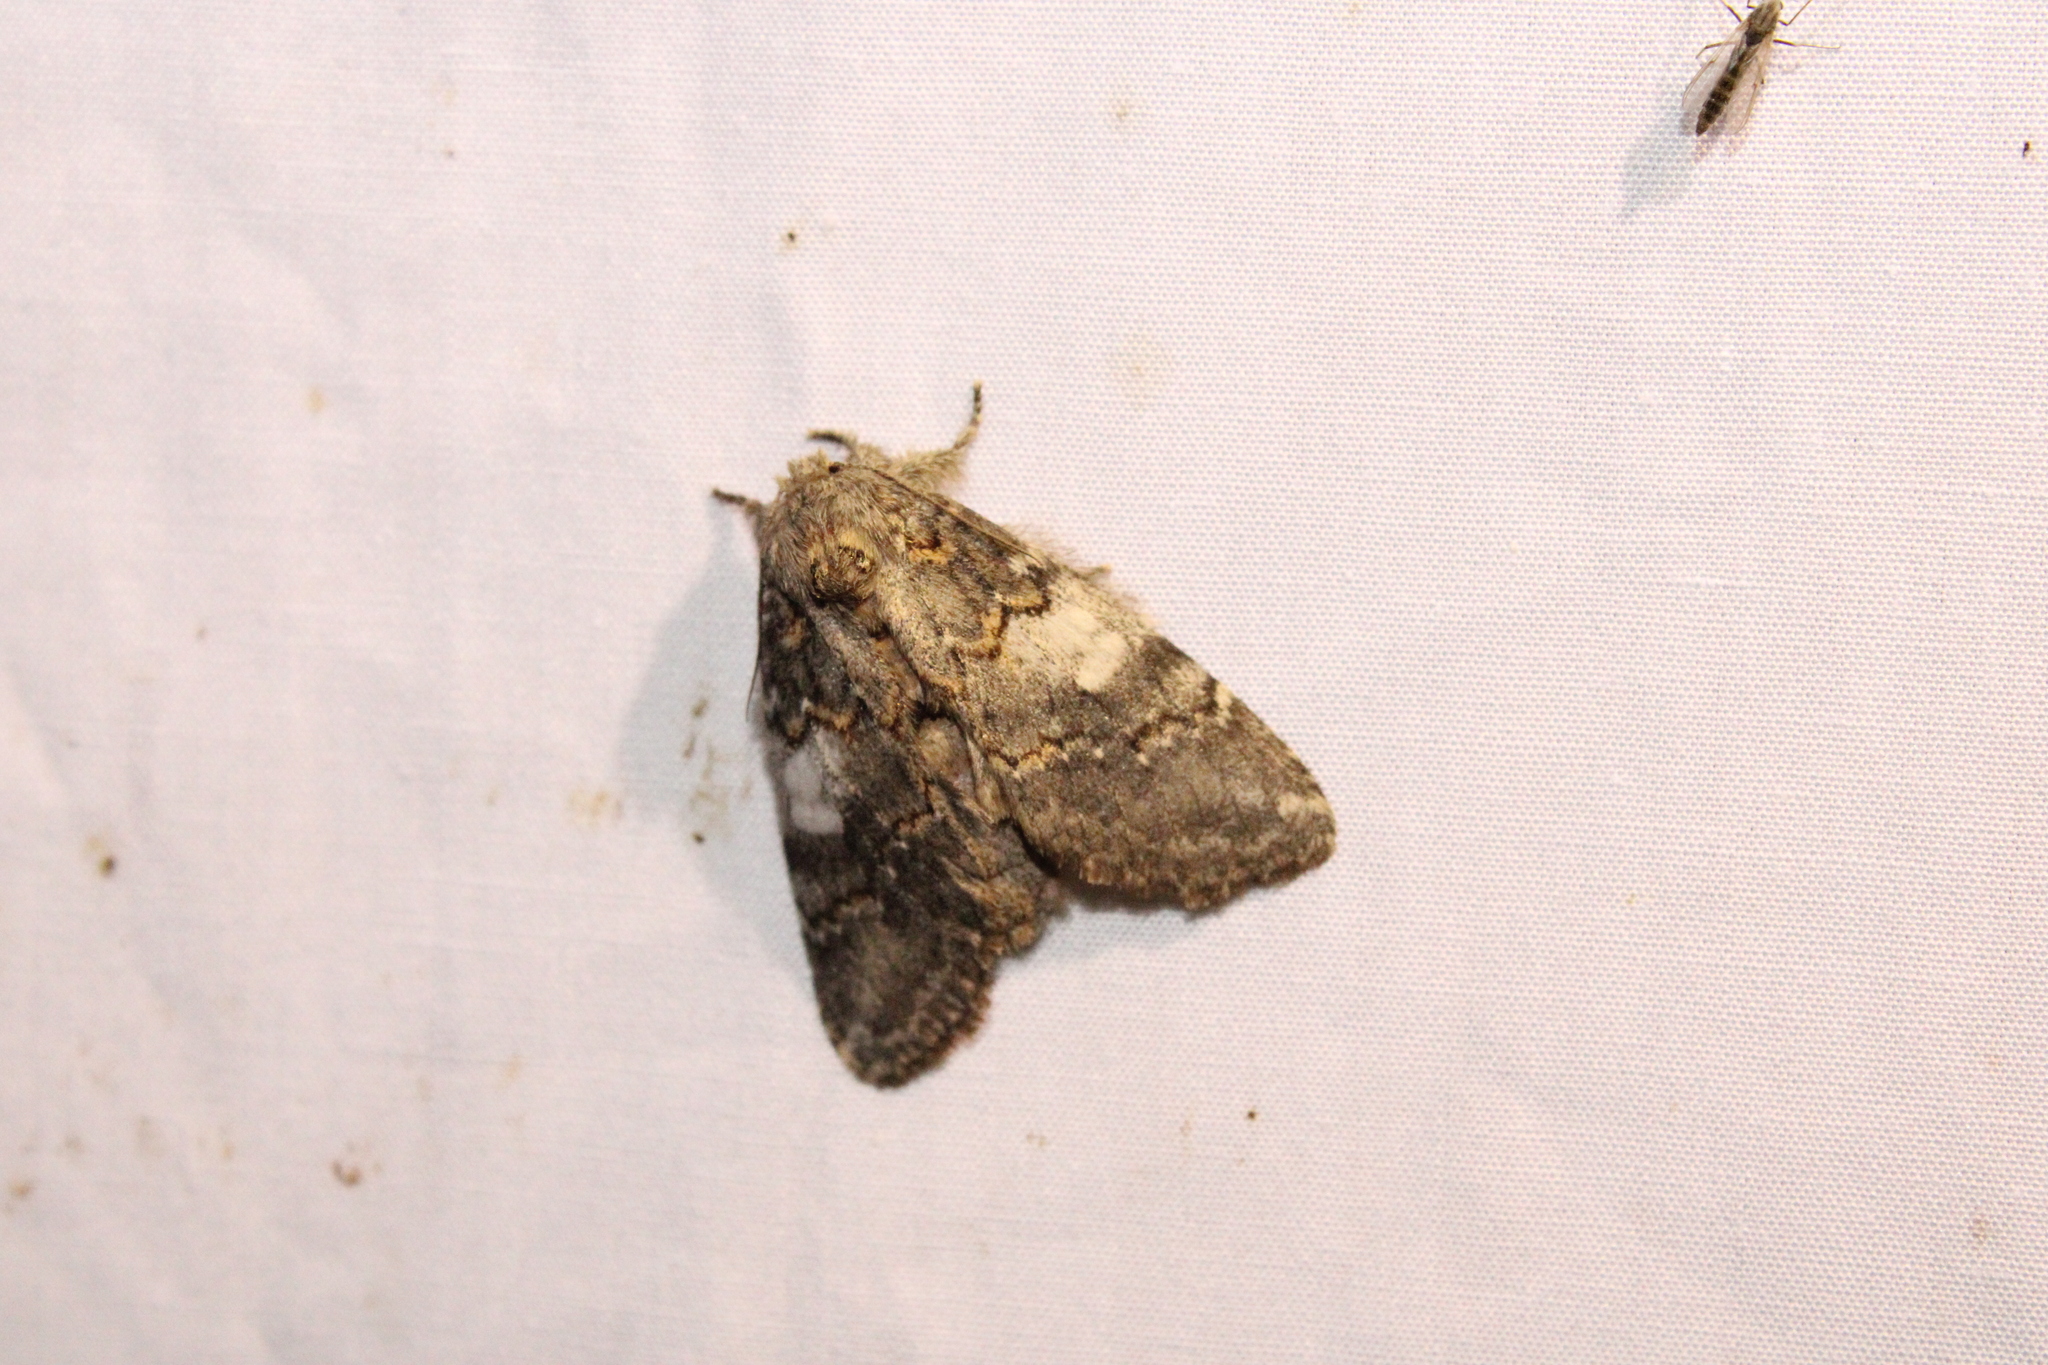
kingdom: Animalia
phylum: Arthropoda
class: Insecta
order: Lepidoptera
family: Notodontidae
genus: Peridea
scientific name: Peridea angulosa
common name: Angulose prominent
